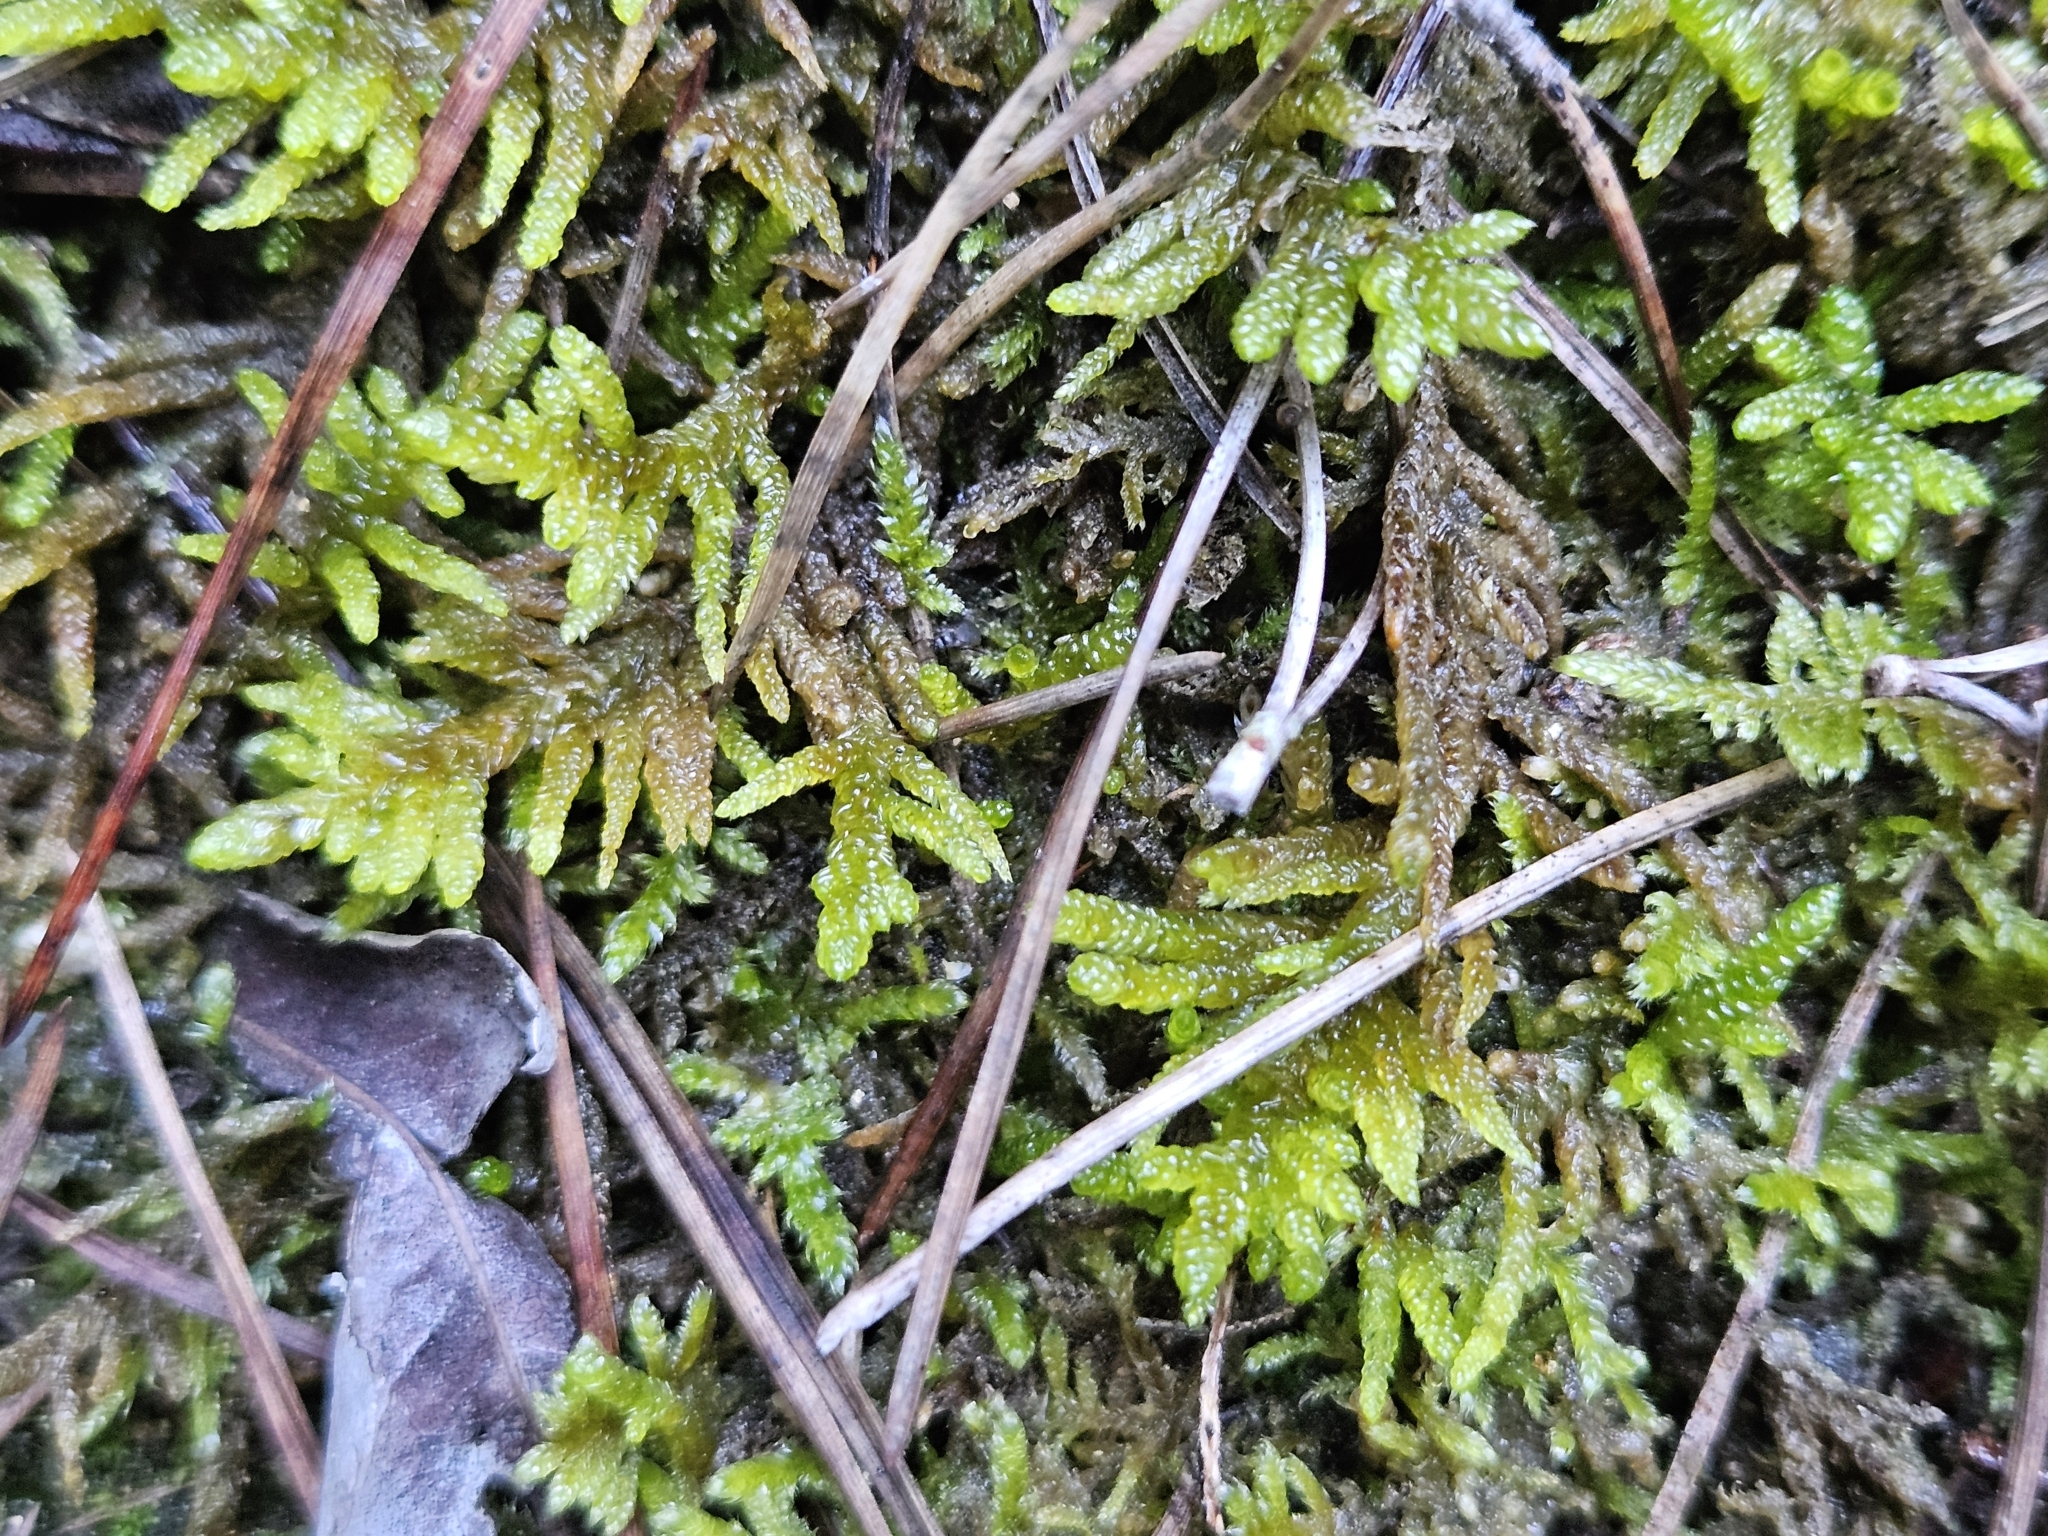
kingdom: Plantae
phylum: Bryophyta
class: Bryopsida
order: Hypnales
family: Brachytheciaceae
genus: Pseudoscleropodium
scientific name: Pseudoscleropodium purum
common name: Neat feather-moss
